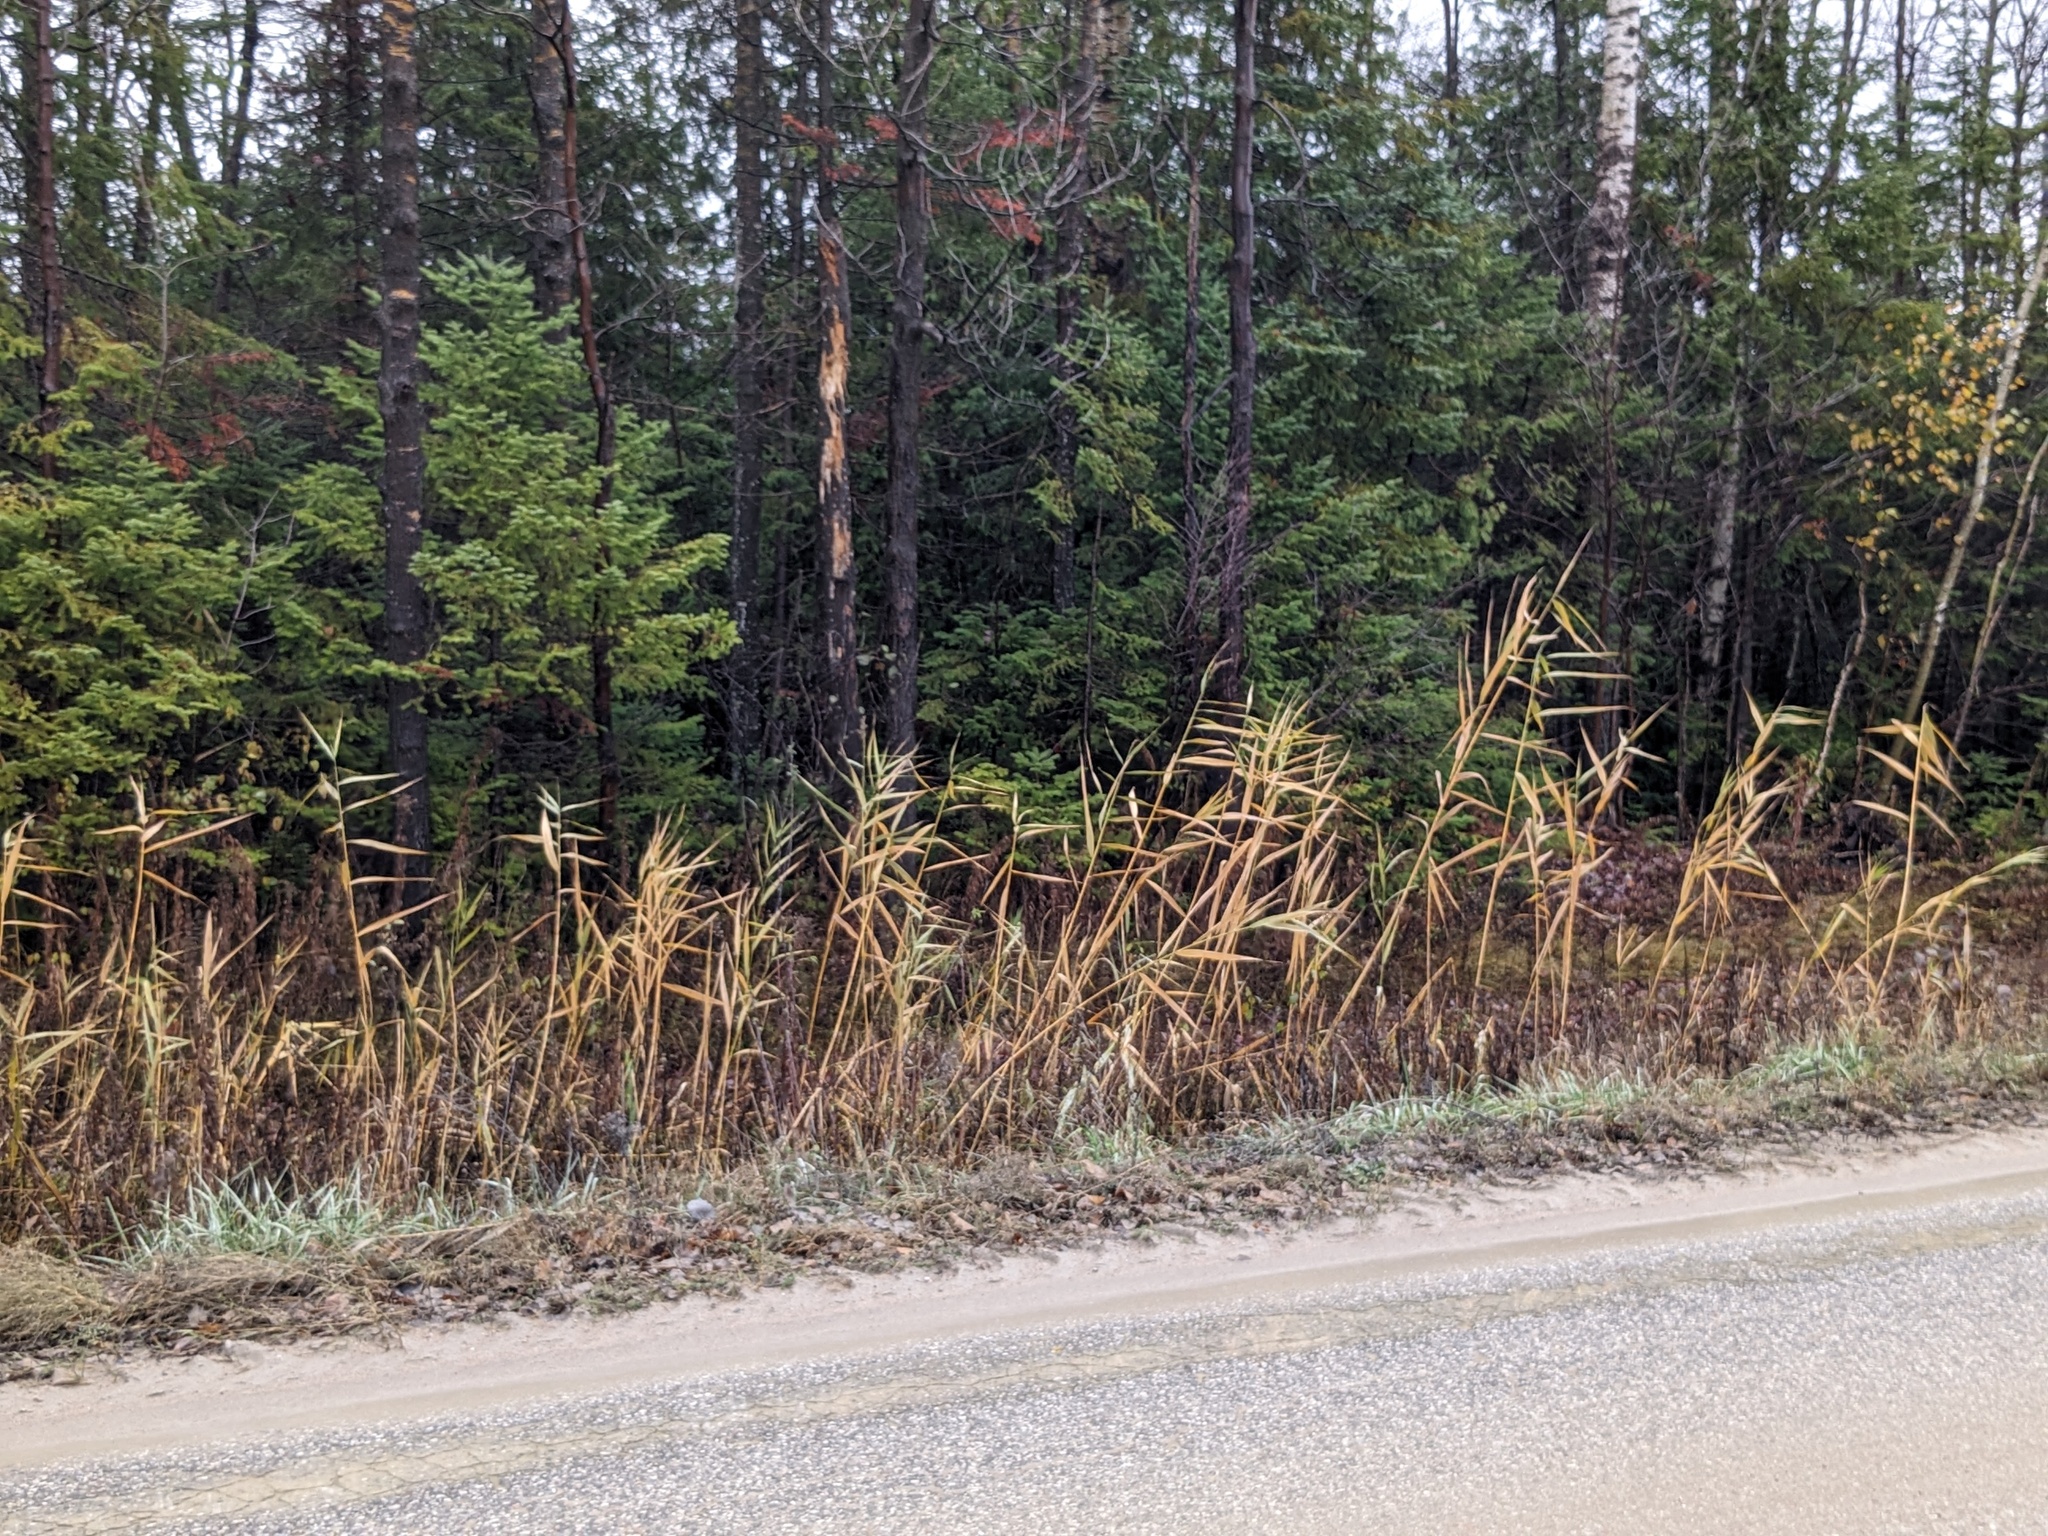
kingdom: Plantae
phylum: Tracheophyta
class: Liliopsida
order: Poales
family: Poaceae
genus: Phragmites
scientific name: Phragmites australis
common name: Common reed
